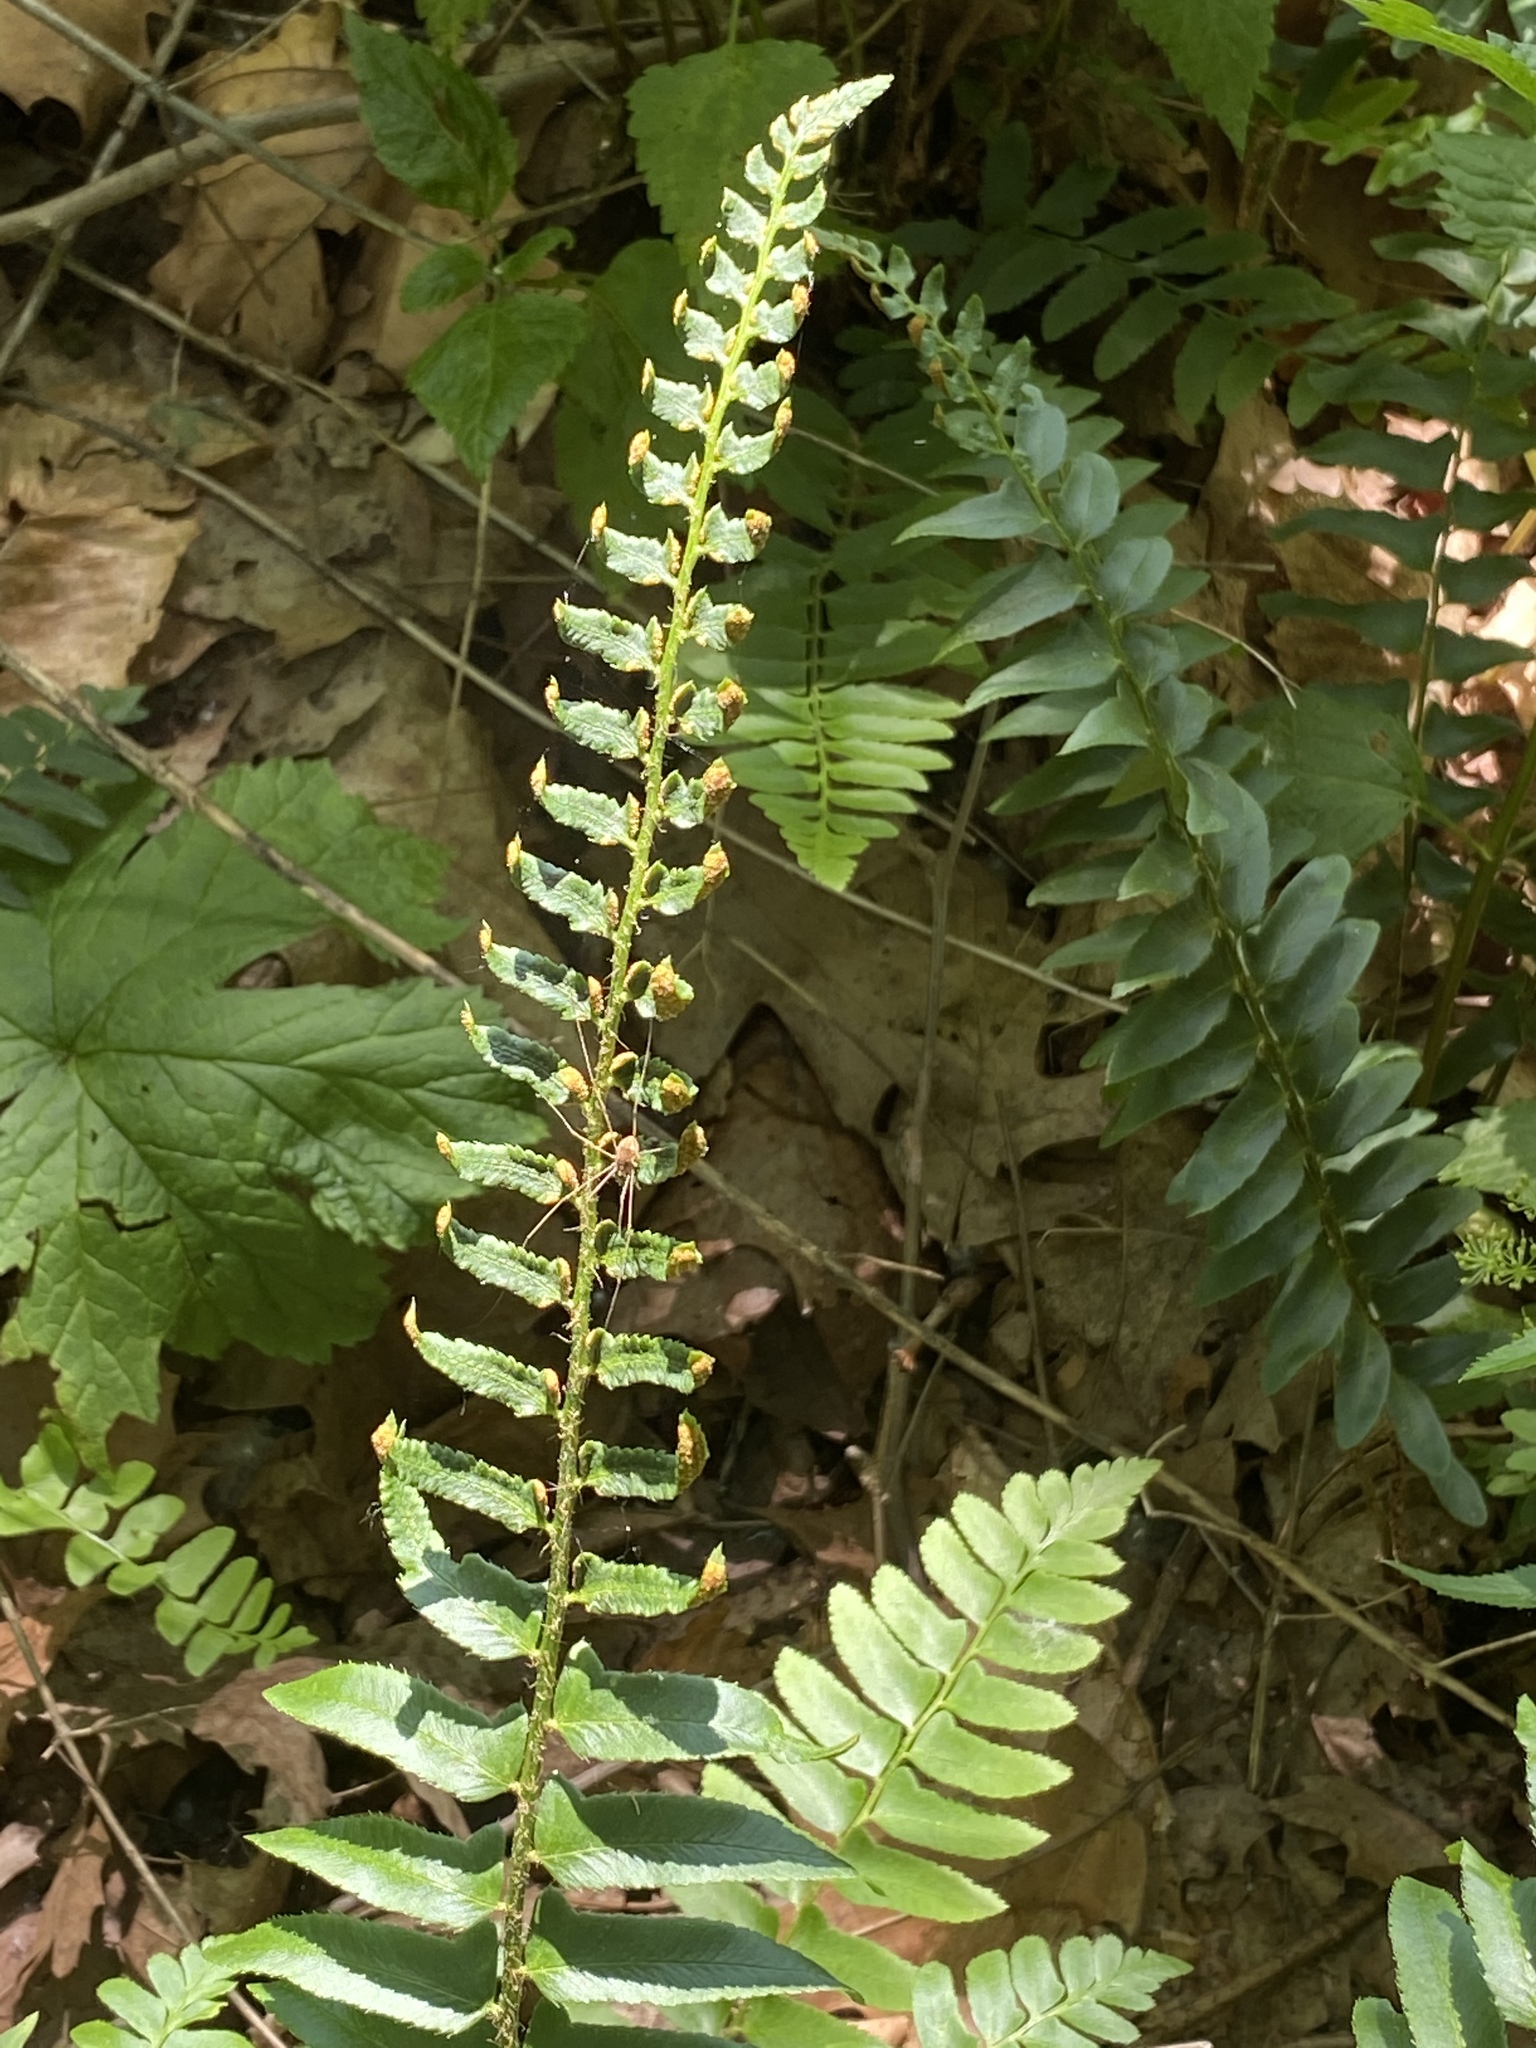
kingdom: Plantae
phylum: Tracheophyta
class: Polypodiopsida
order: Polypodiales
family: Dryopteridaceae
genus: Polystichum
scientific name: Polystichum acrostichoides
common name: Christmas fern
